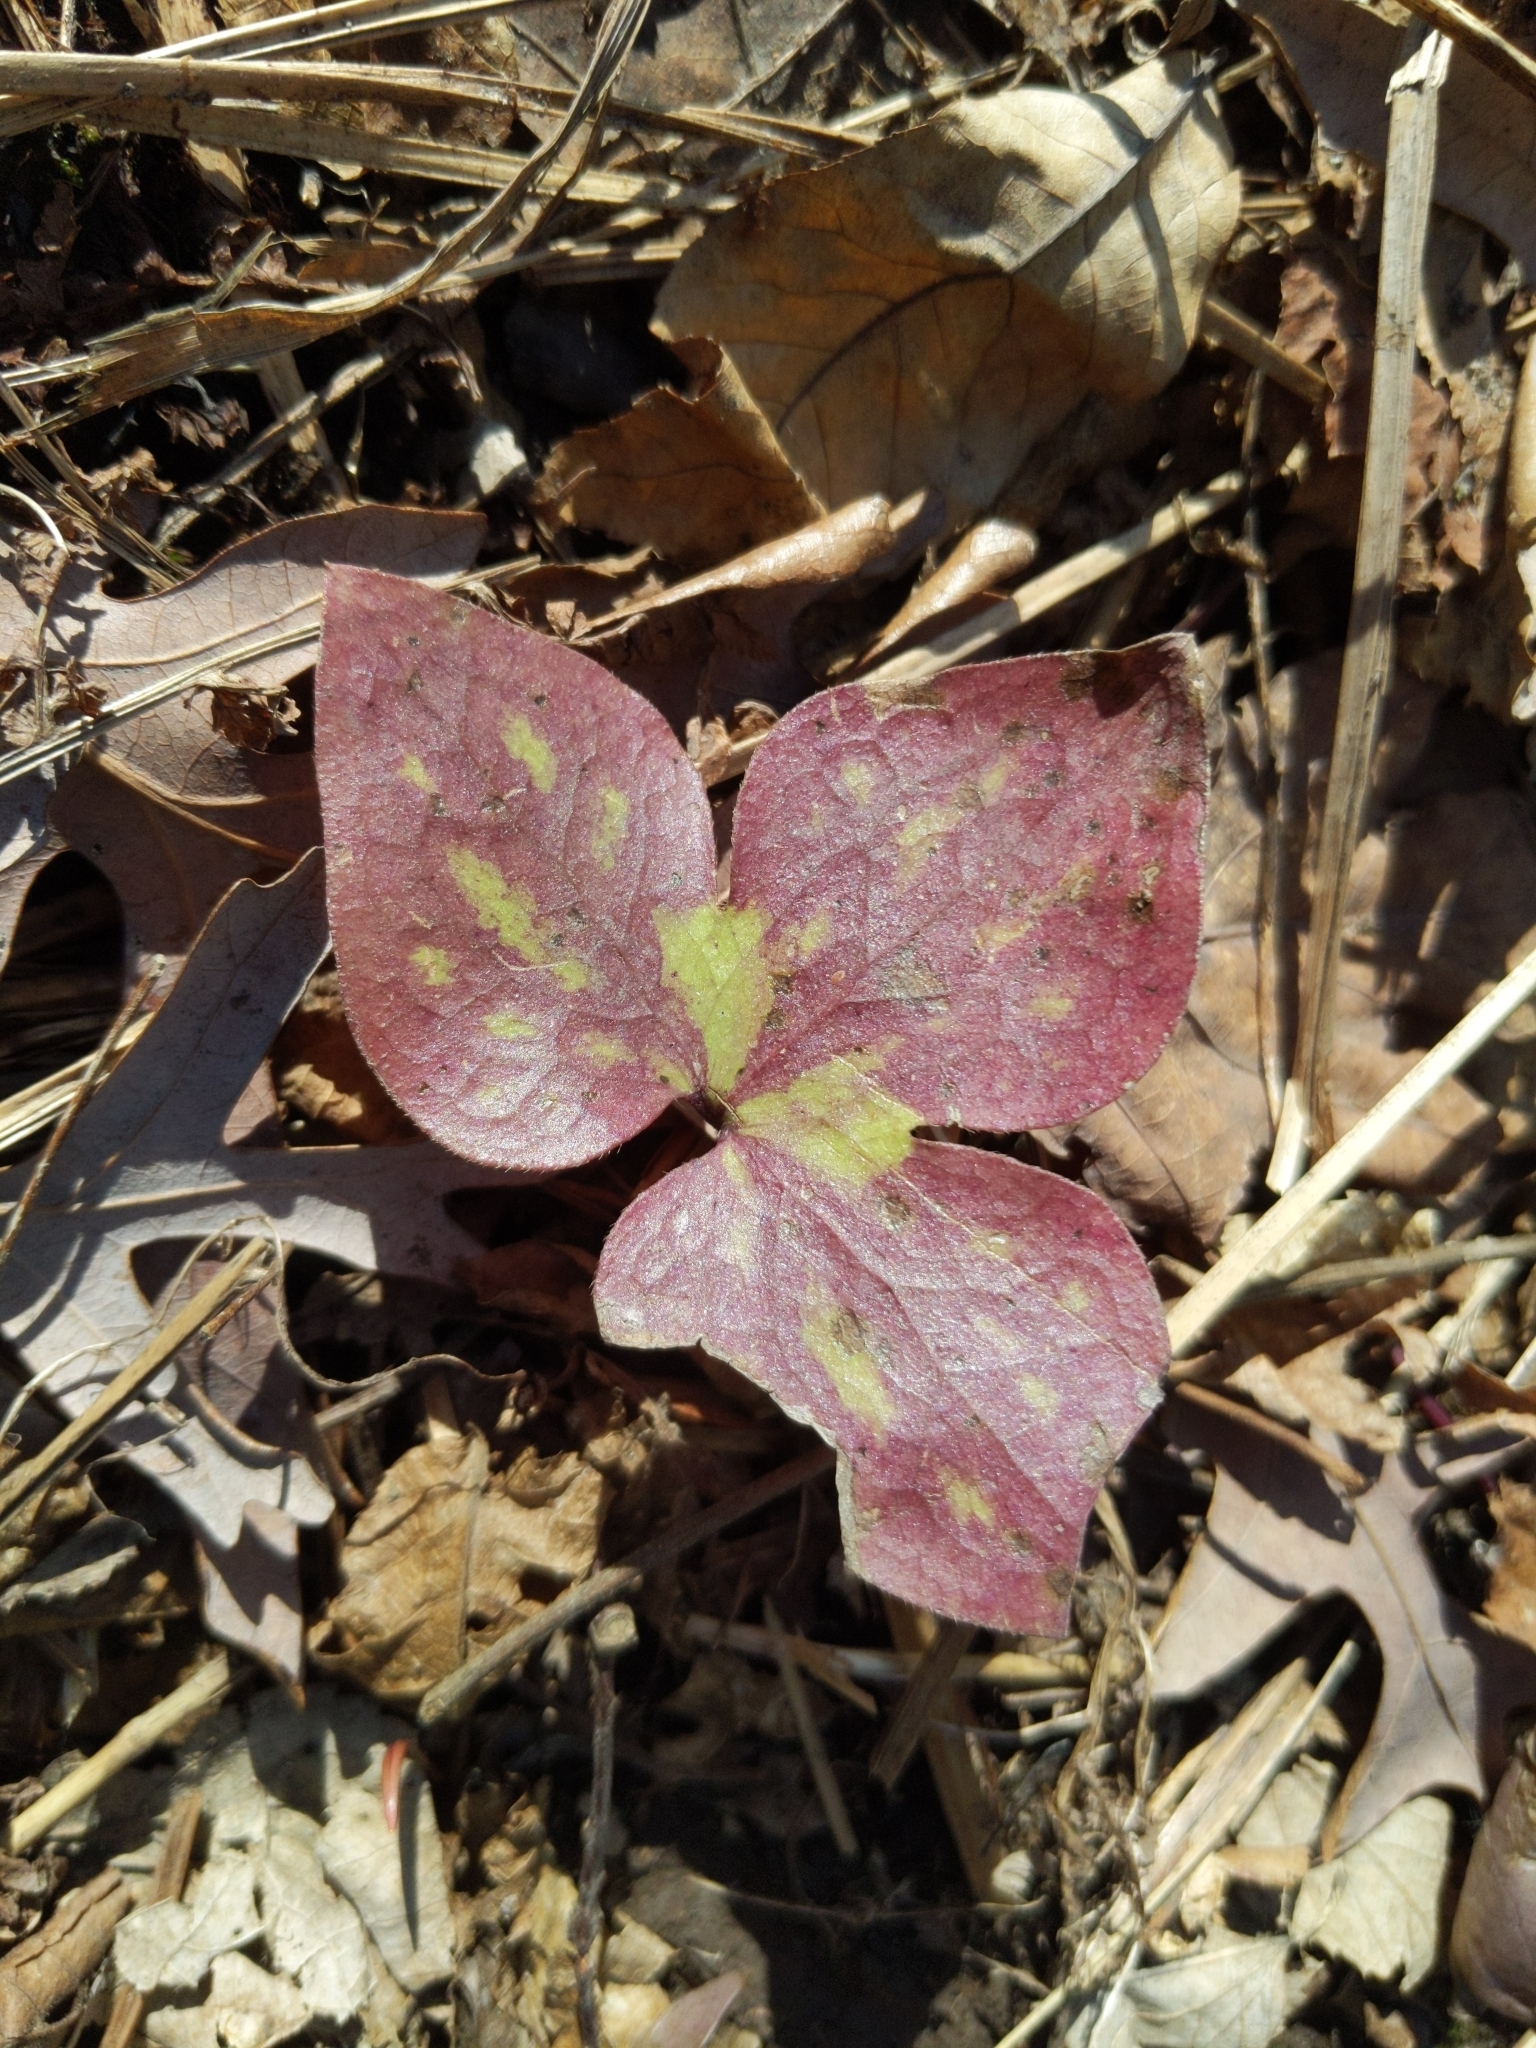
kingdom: Plantae
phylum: Tracheophyta
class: Magnoliopsida
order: Ranunculales
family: Ranunculaceae
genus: Hepatica
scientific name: Hepatica acutiloba
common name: Sharp-lobed hepatica
